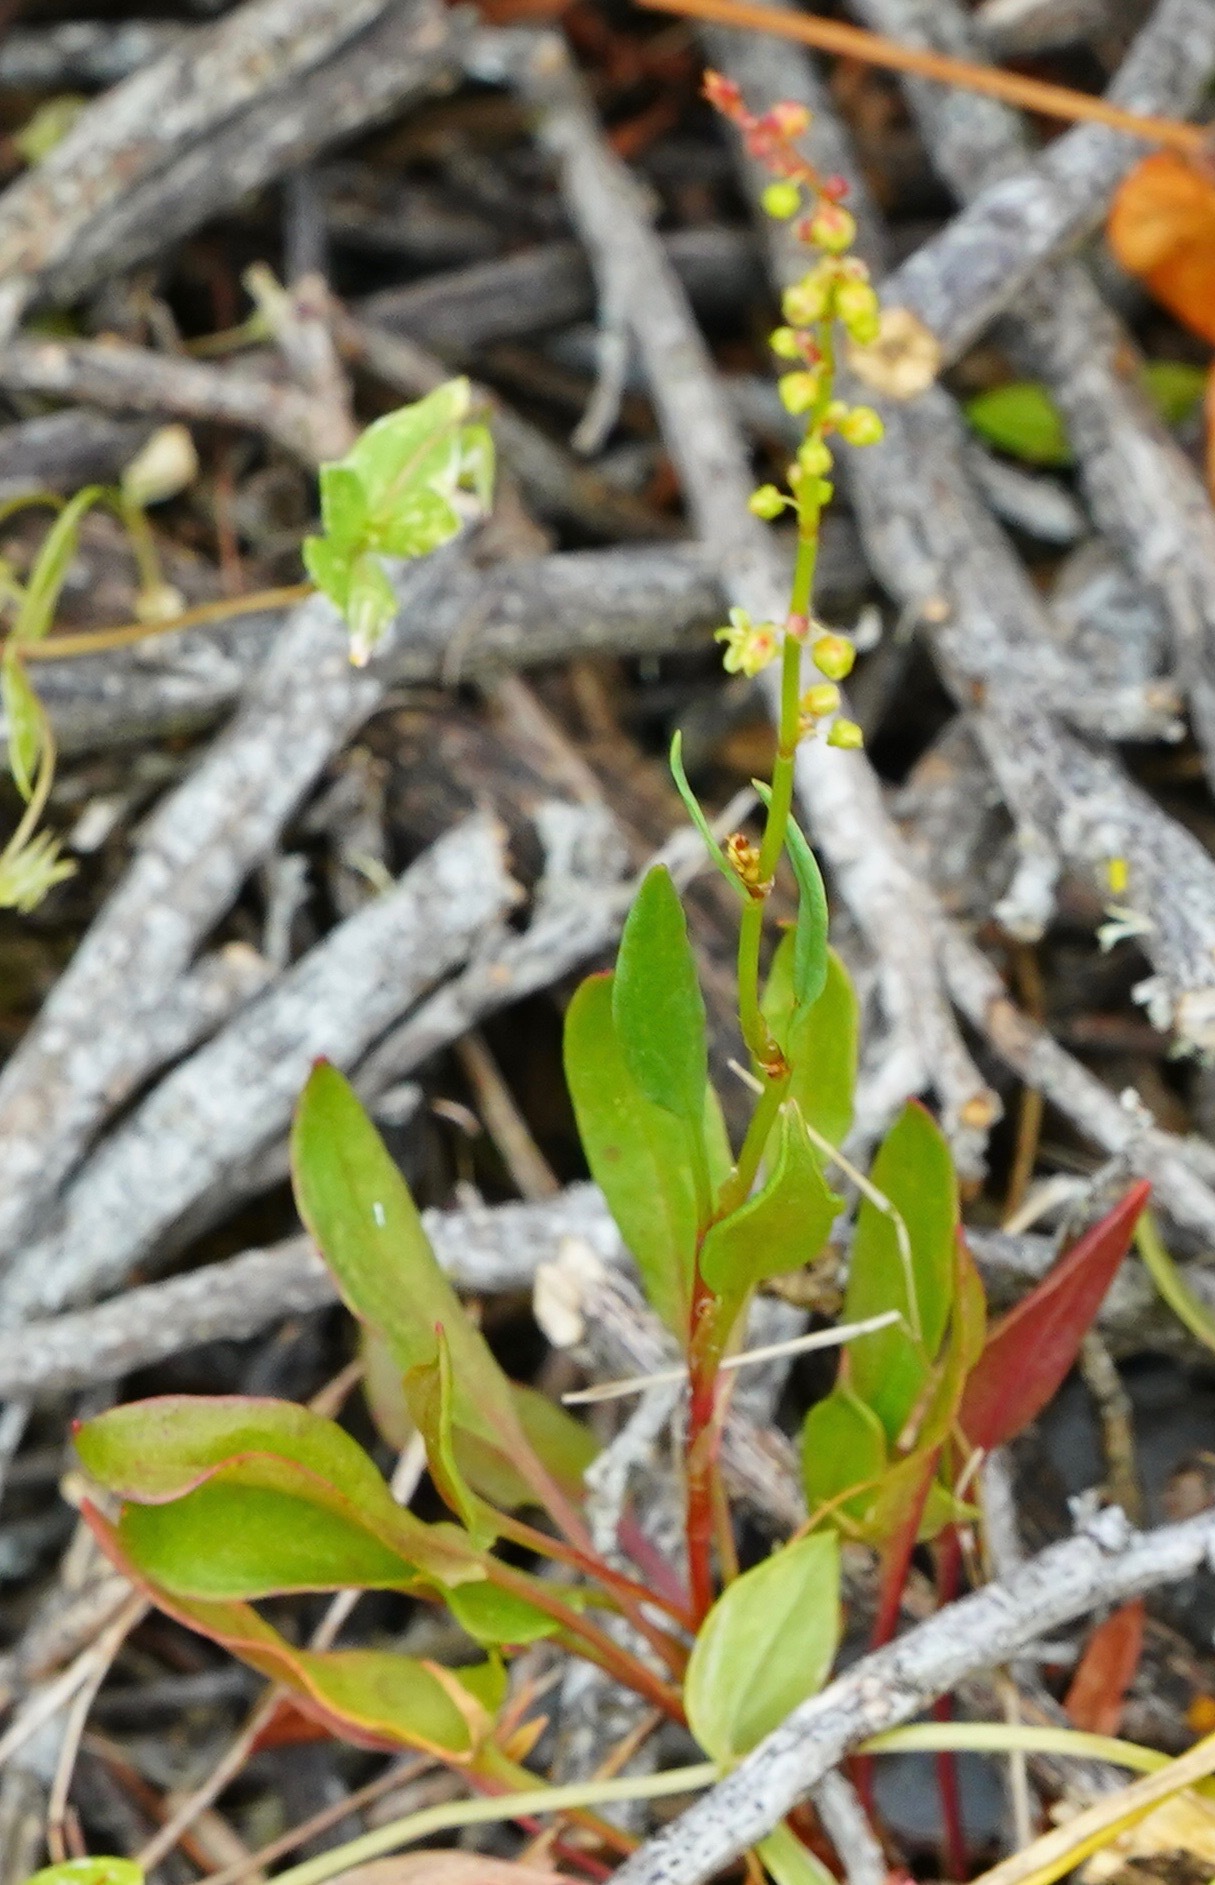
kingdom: Plantae
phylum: Tracheophyta
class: Magnoliopsida
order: Caryophyllales
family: Polygonaceae
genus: Rumex
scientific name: Rumex acetosella
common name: Common sheep sorrel
